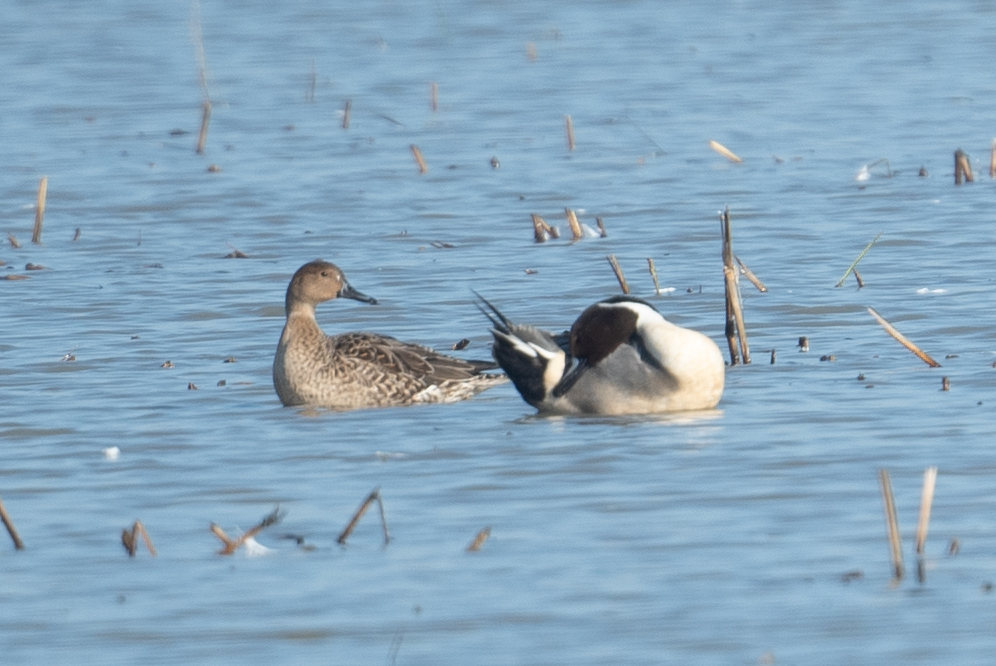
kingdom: Animalia
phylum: Chordata
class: Aves
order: Anseriformes
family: Anatidae
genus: Anas
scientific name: Anas acuta
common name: Northern pintail
